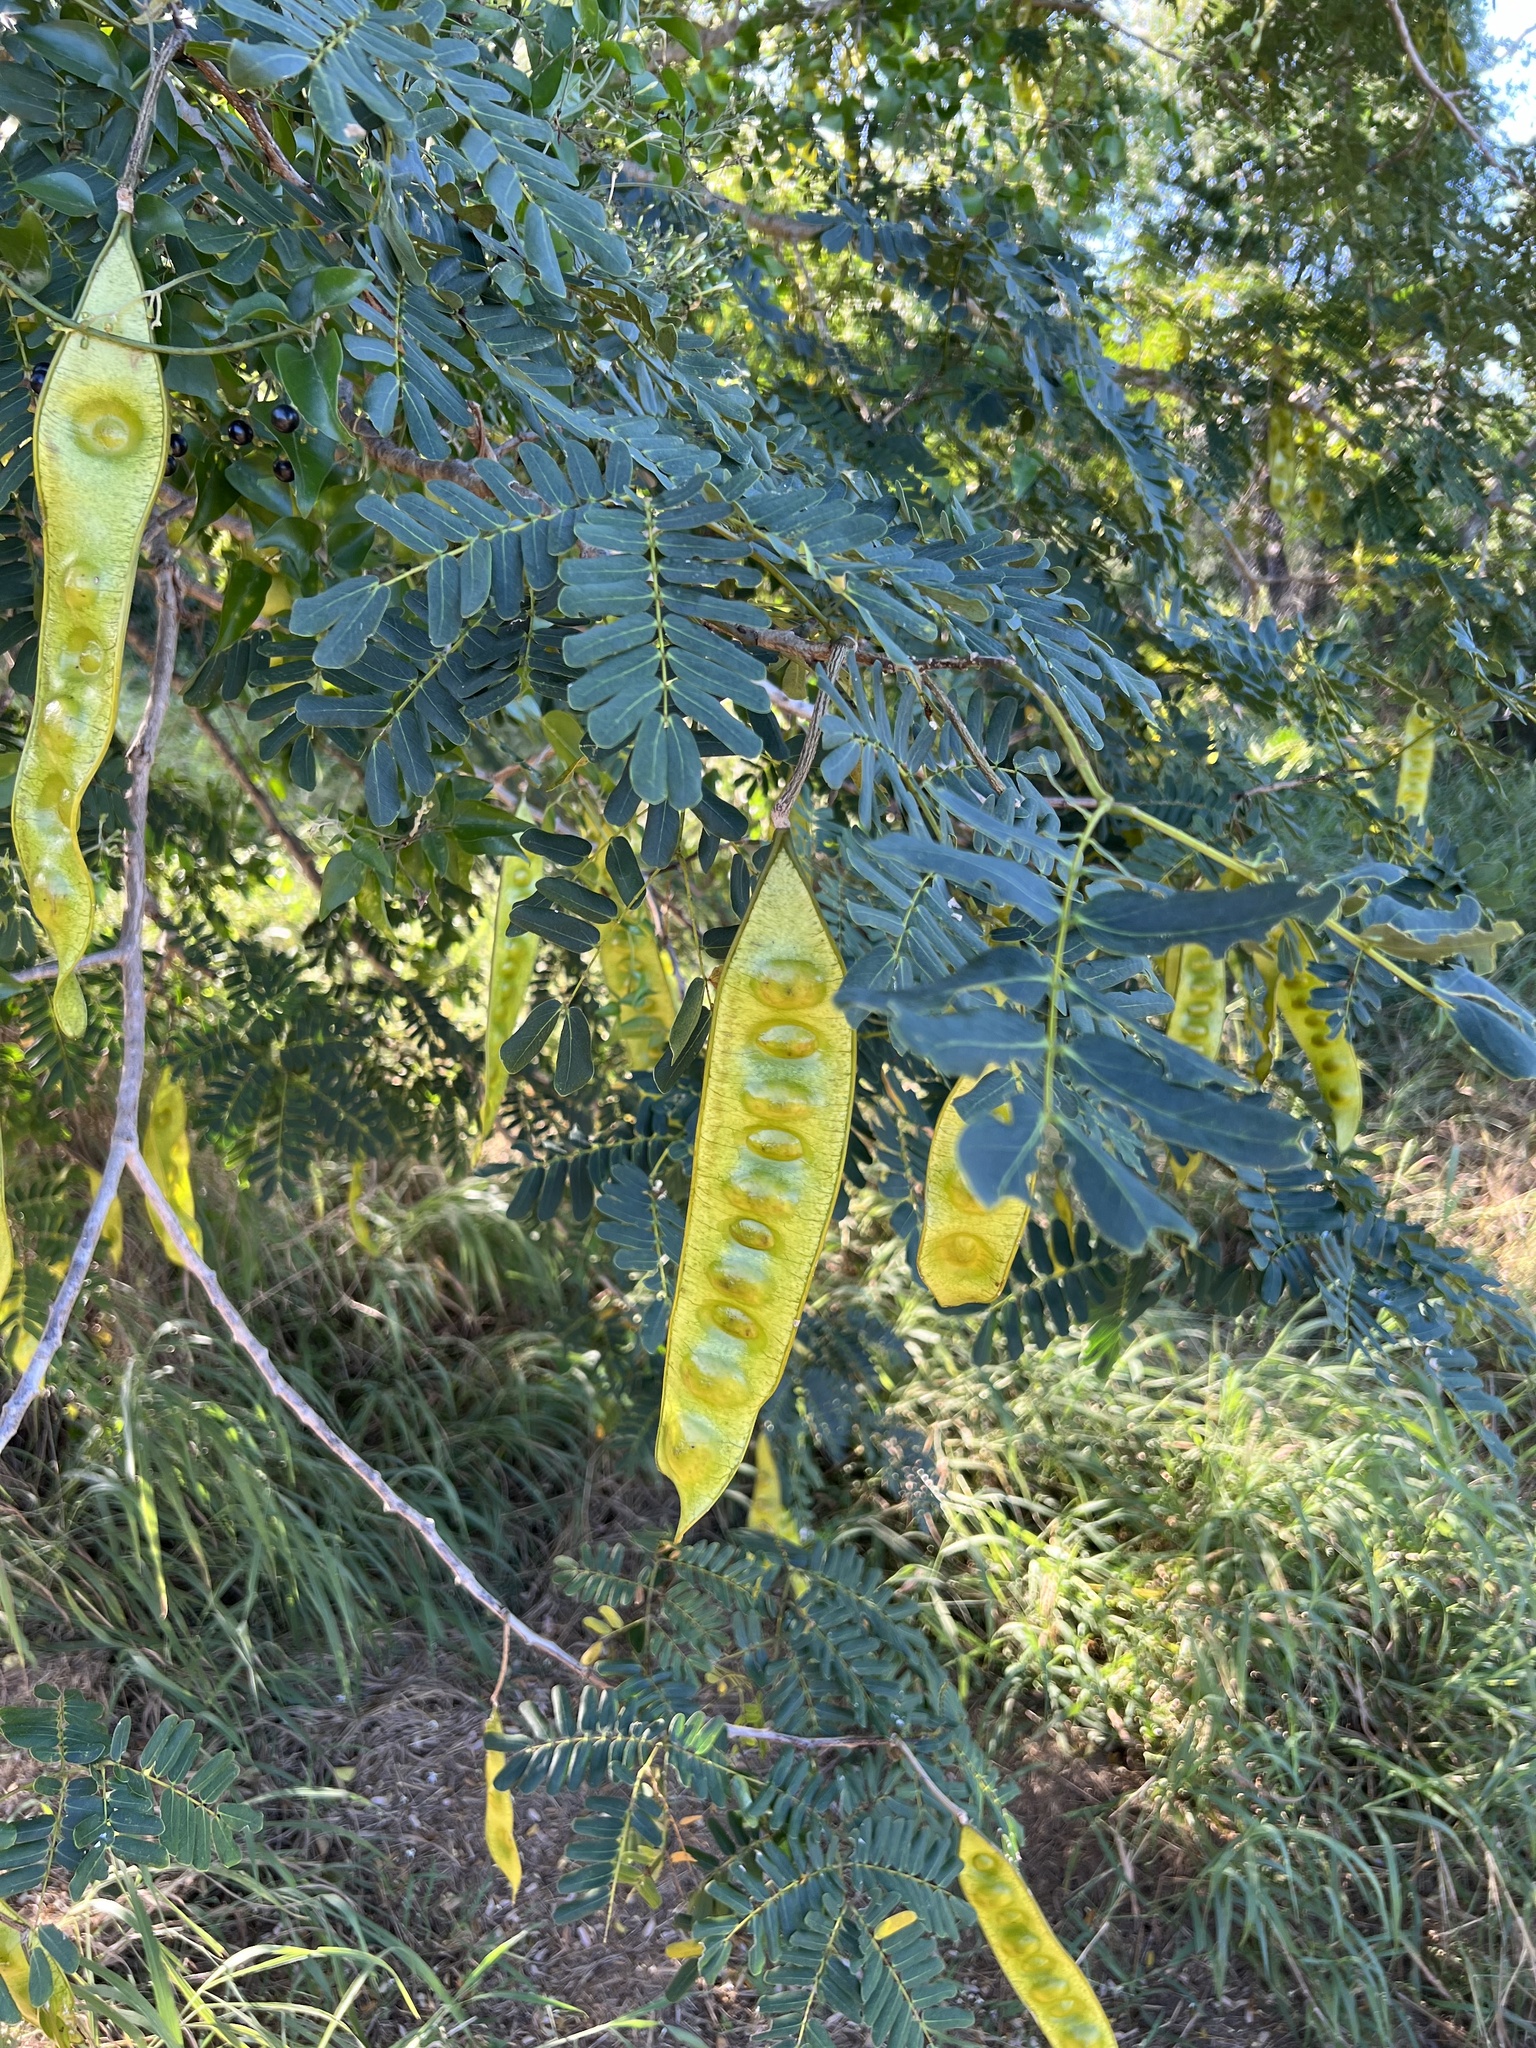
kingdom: Plantae
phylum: Tracheophyta
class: Magnoliopsida
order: Fabales
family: Fabaceae
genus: Albizia
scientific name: Albizia lebbeck
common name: Woman's tongue
